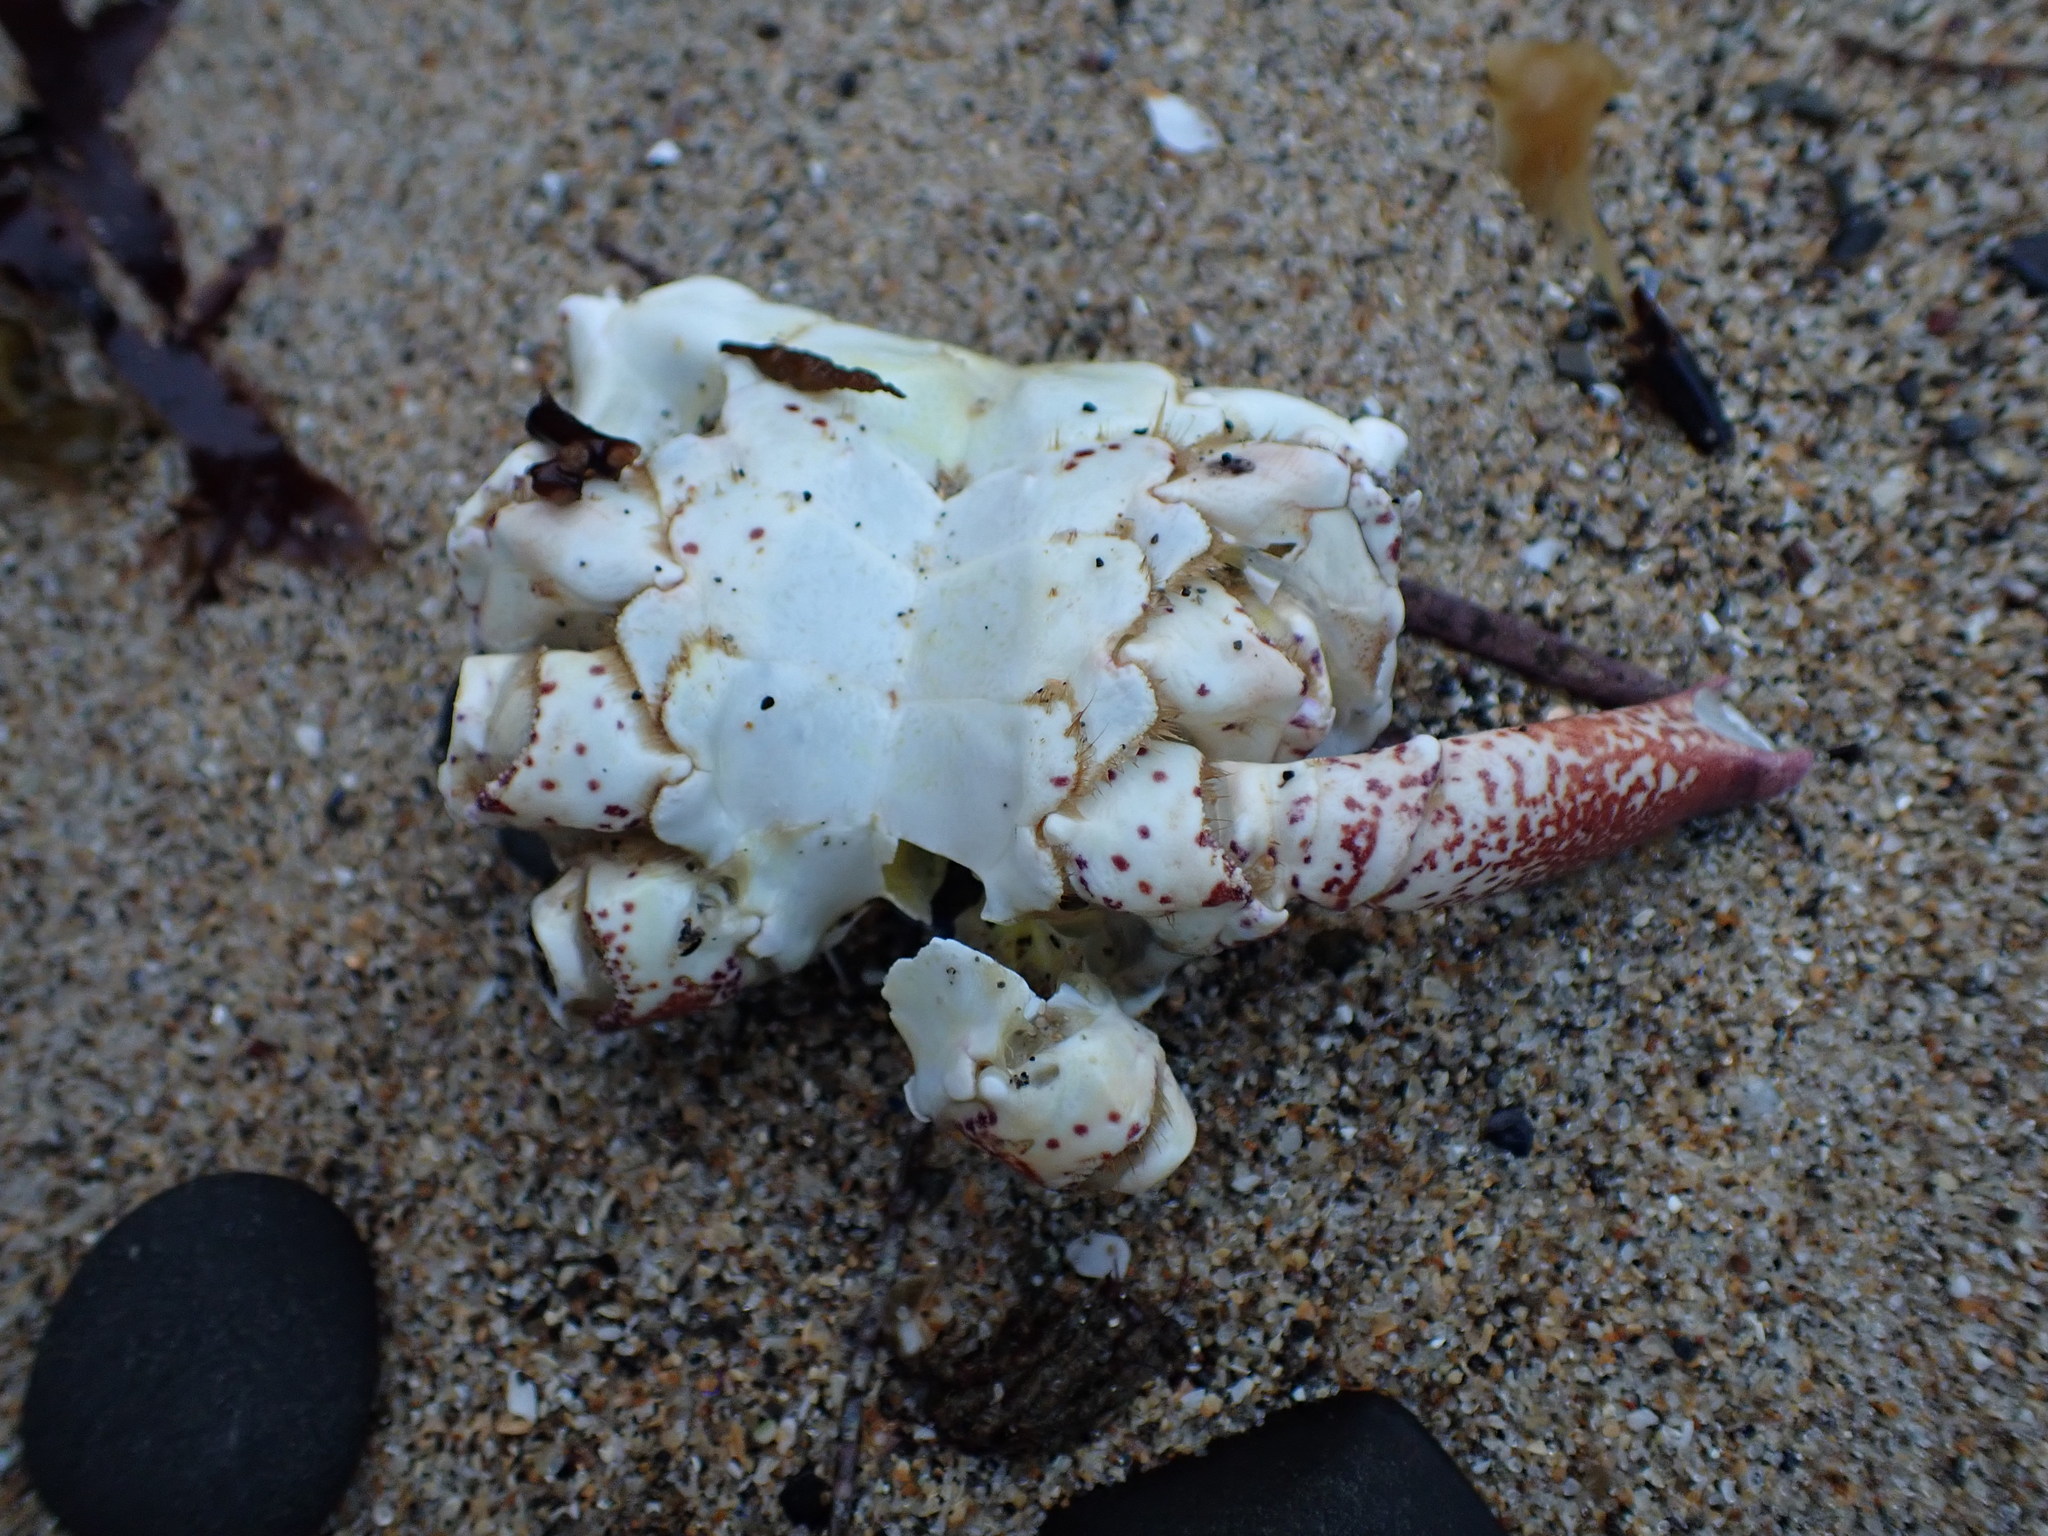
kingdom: Animalia
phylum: Arthropoda
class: Malacostraca
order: Decapoda
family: Cancridae
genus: Romaleon
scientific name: Romaleon antennarium
